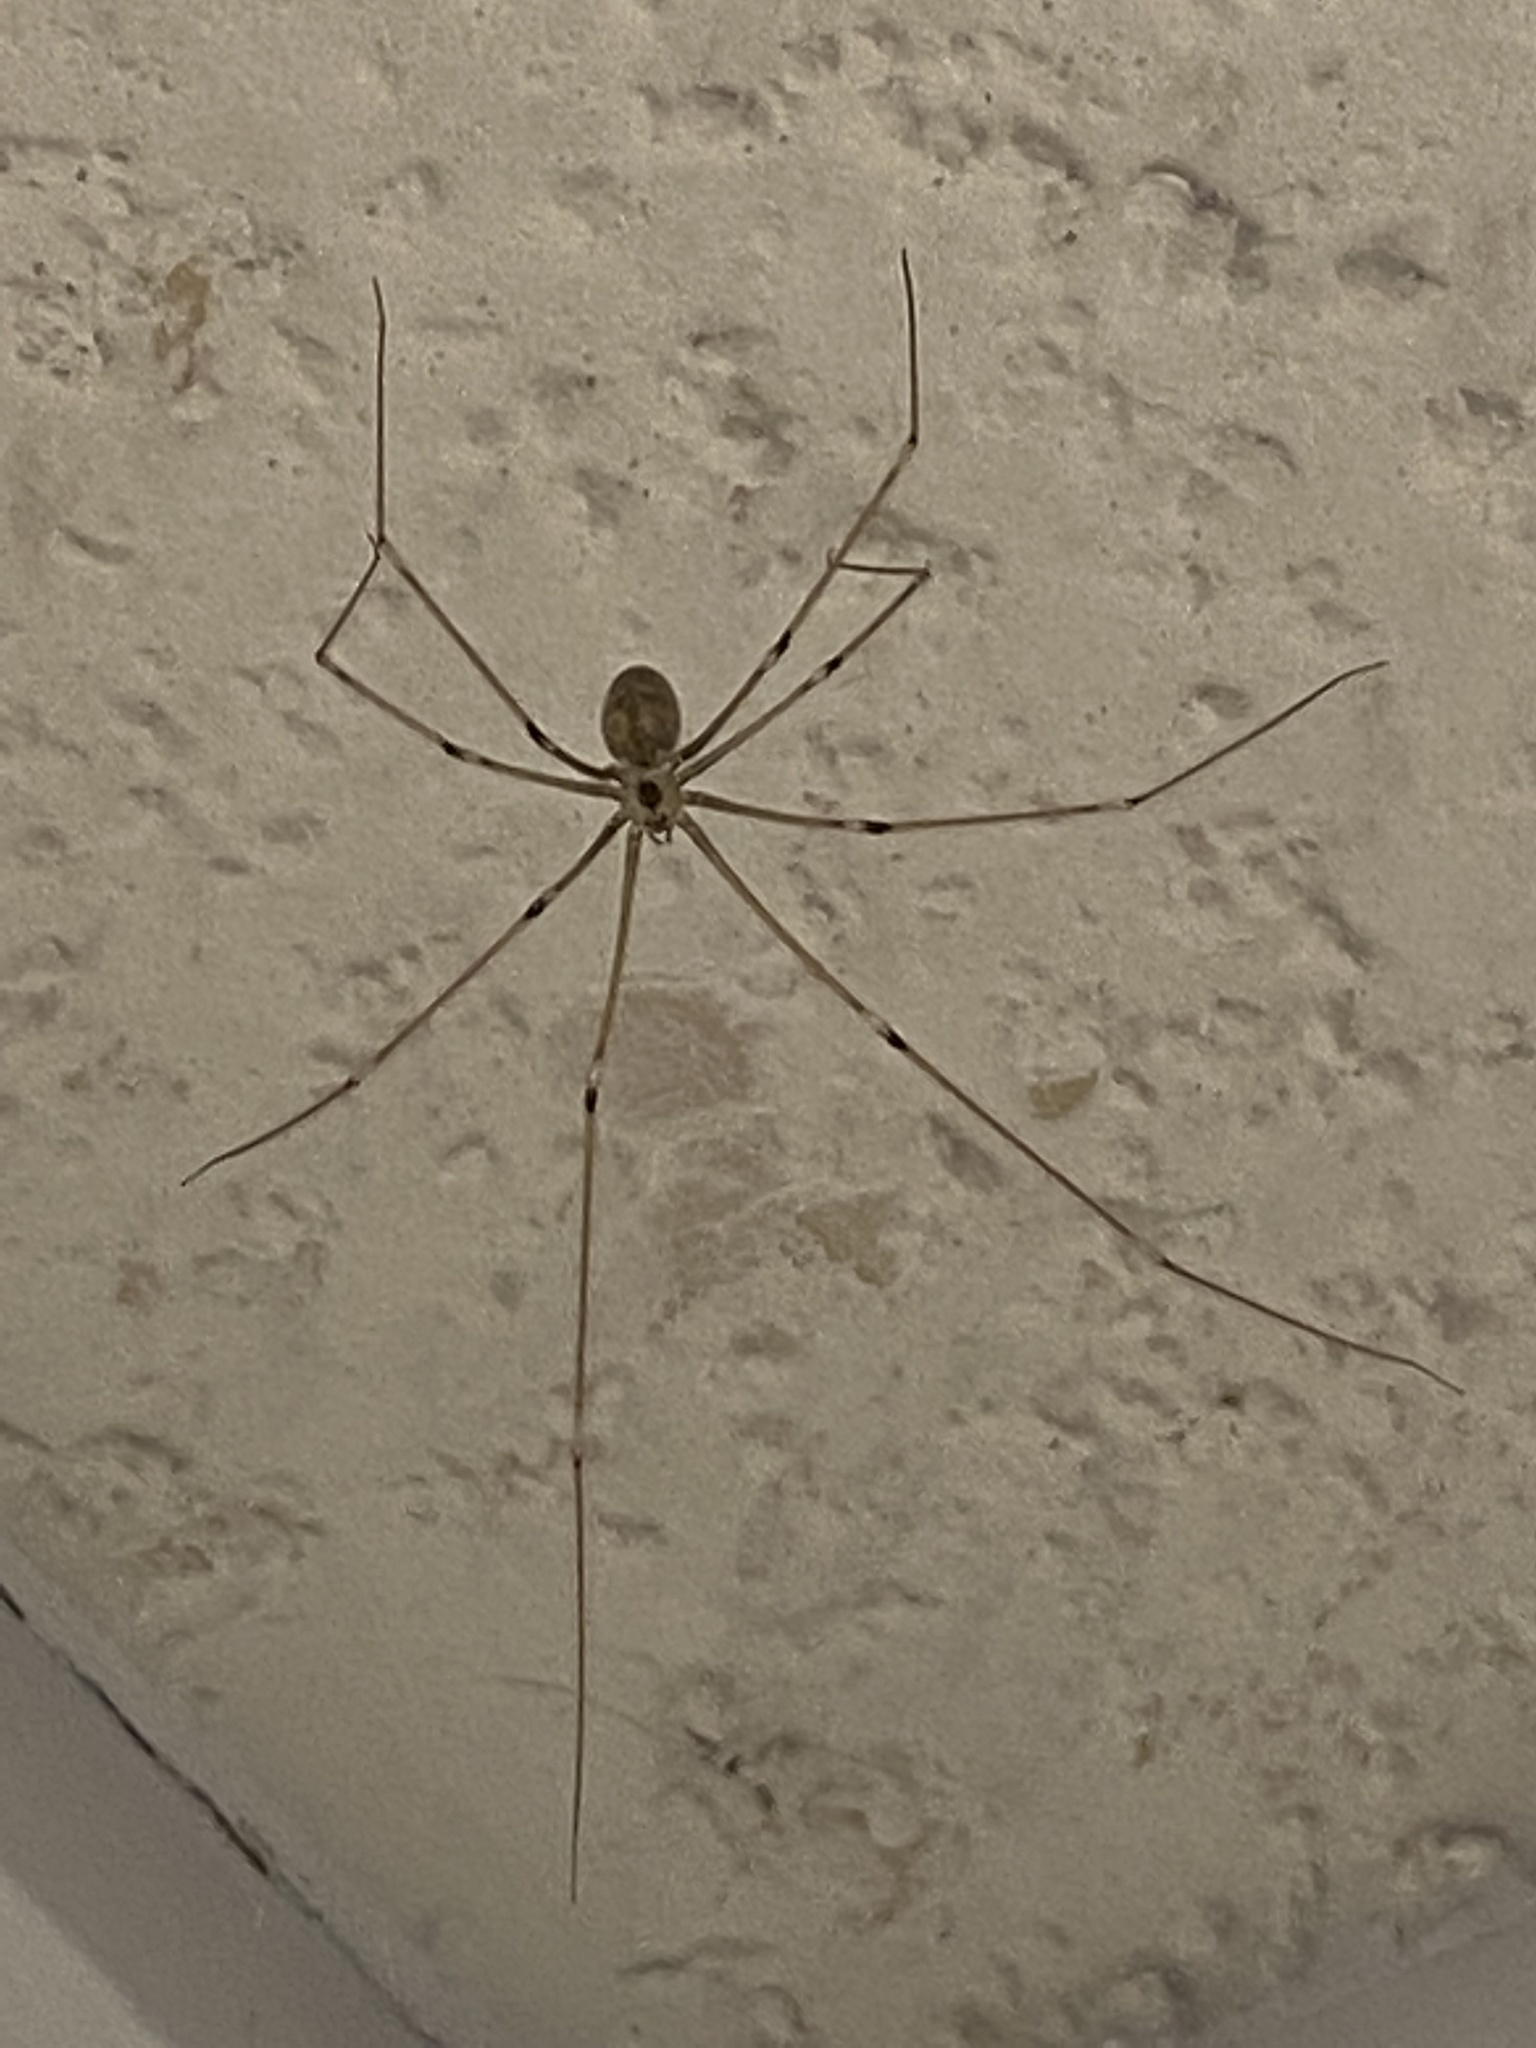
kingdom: Animalia
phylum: Arthropoda
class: Arachnida
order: Araneae
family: Pholcidae
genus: Pholcus
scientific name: Pholcus phalangioides
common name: Longbodied cellar spider
